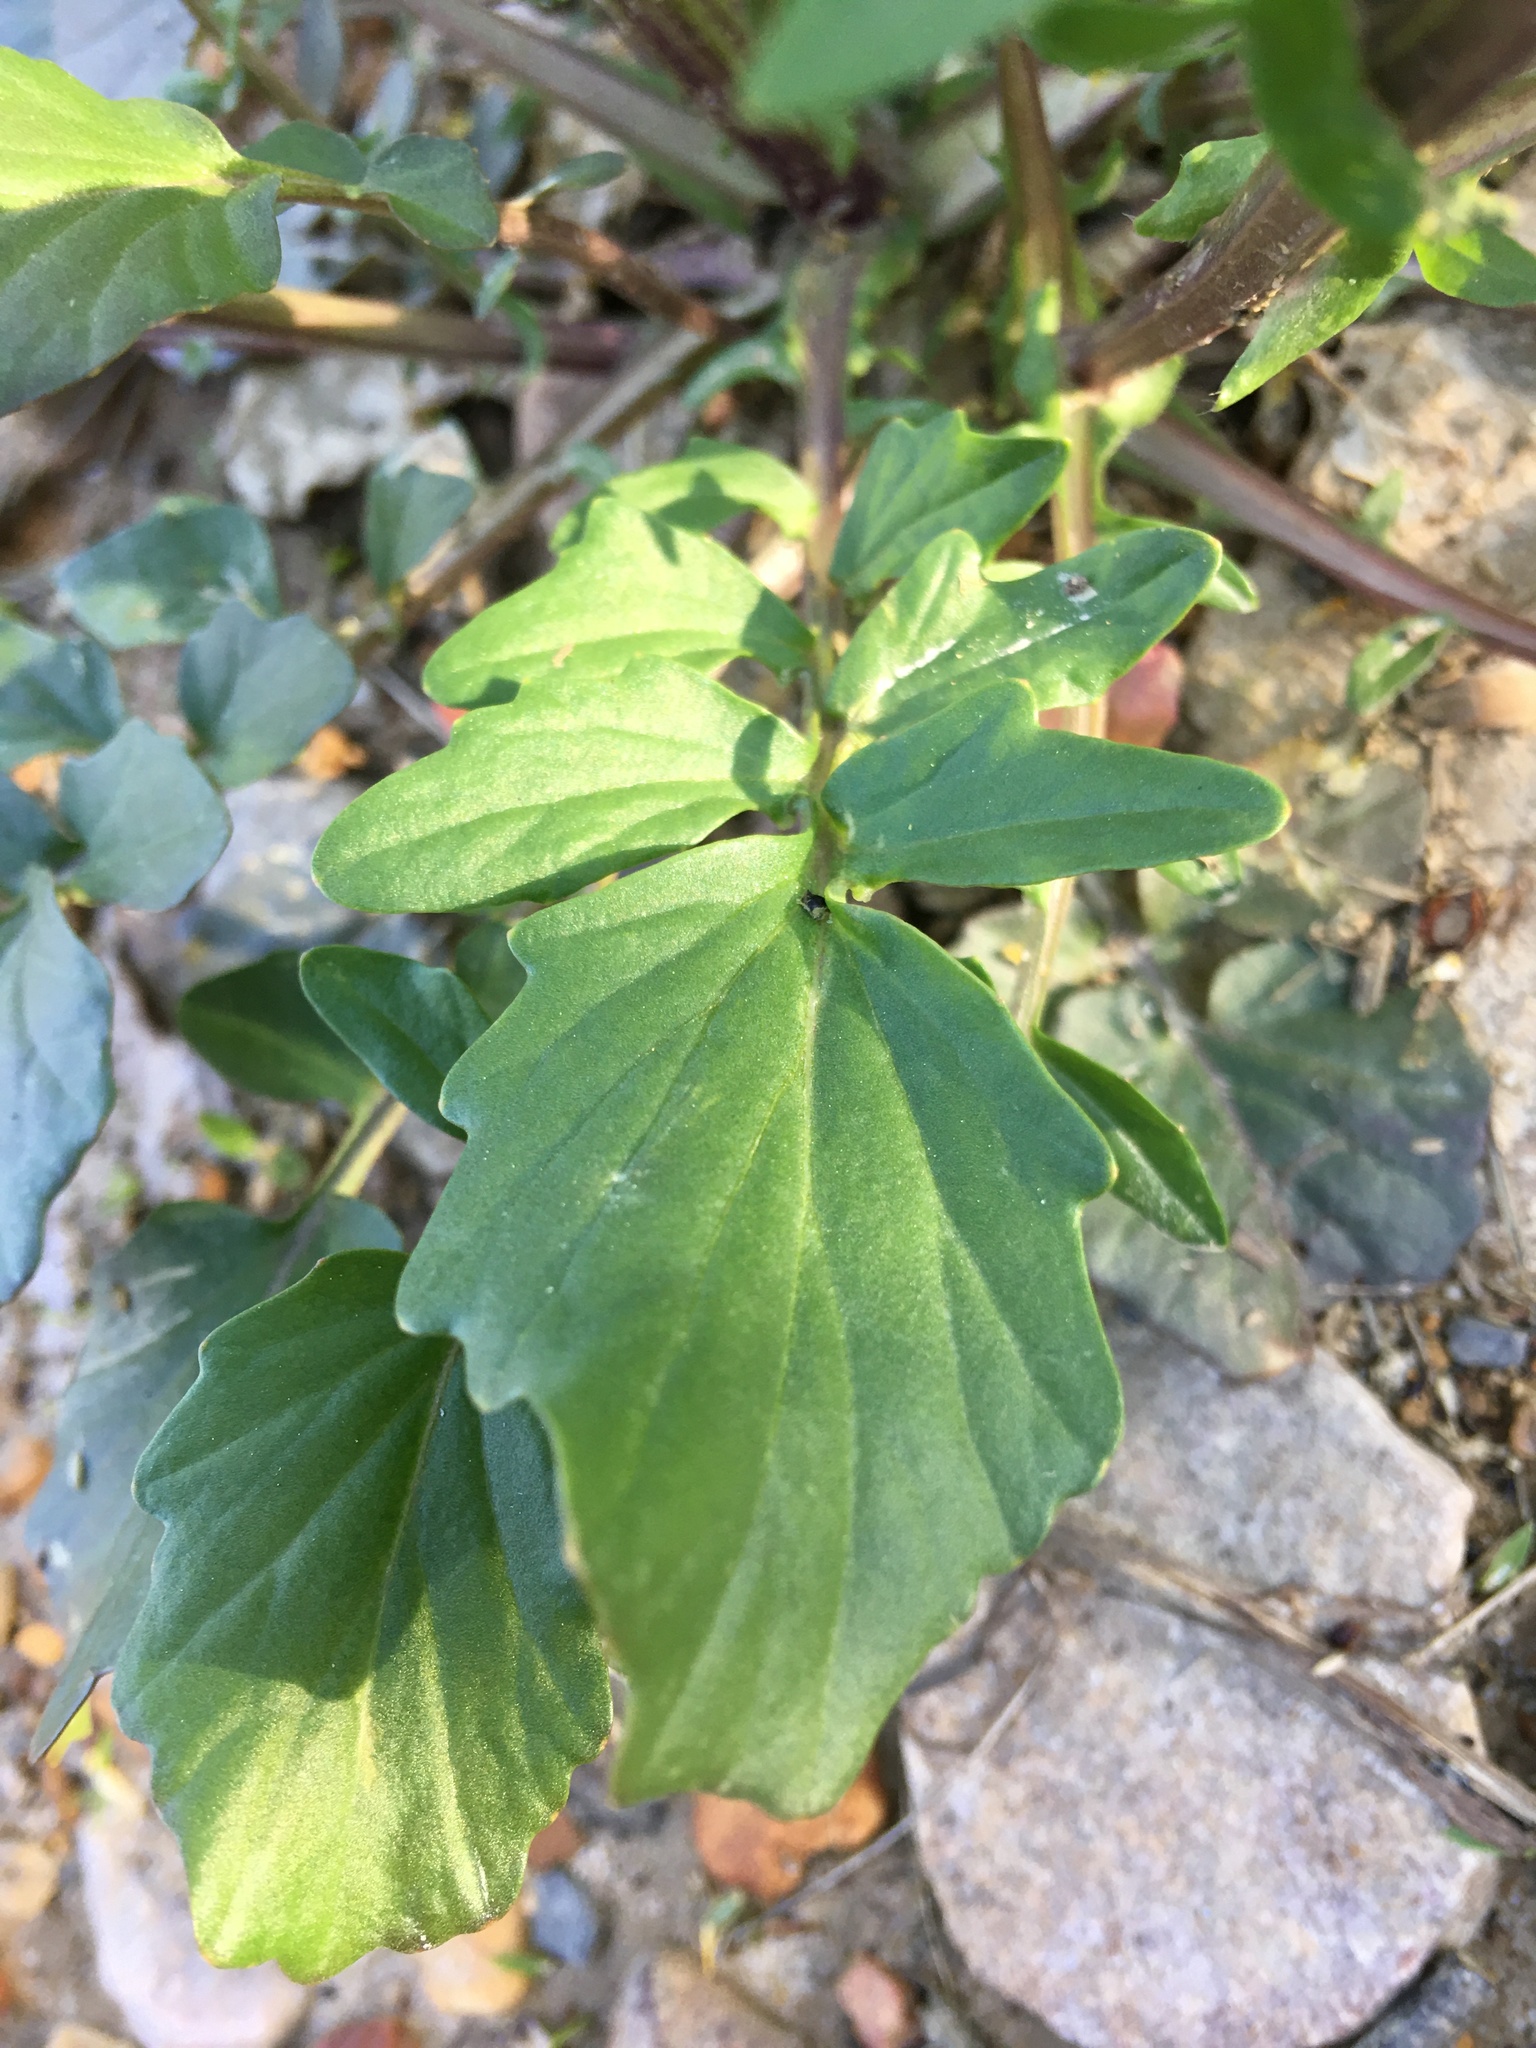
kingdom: Plantae
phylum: Tracheophyta
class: Magnoliopsida
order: Brassicales
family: Brassicaceae
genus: Barbarea
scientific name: Barbarea vulgaris
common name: Cressy-greens
